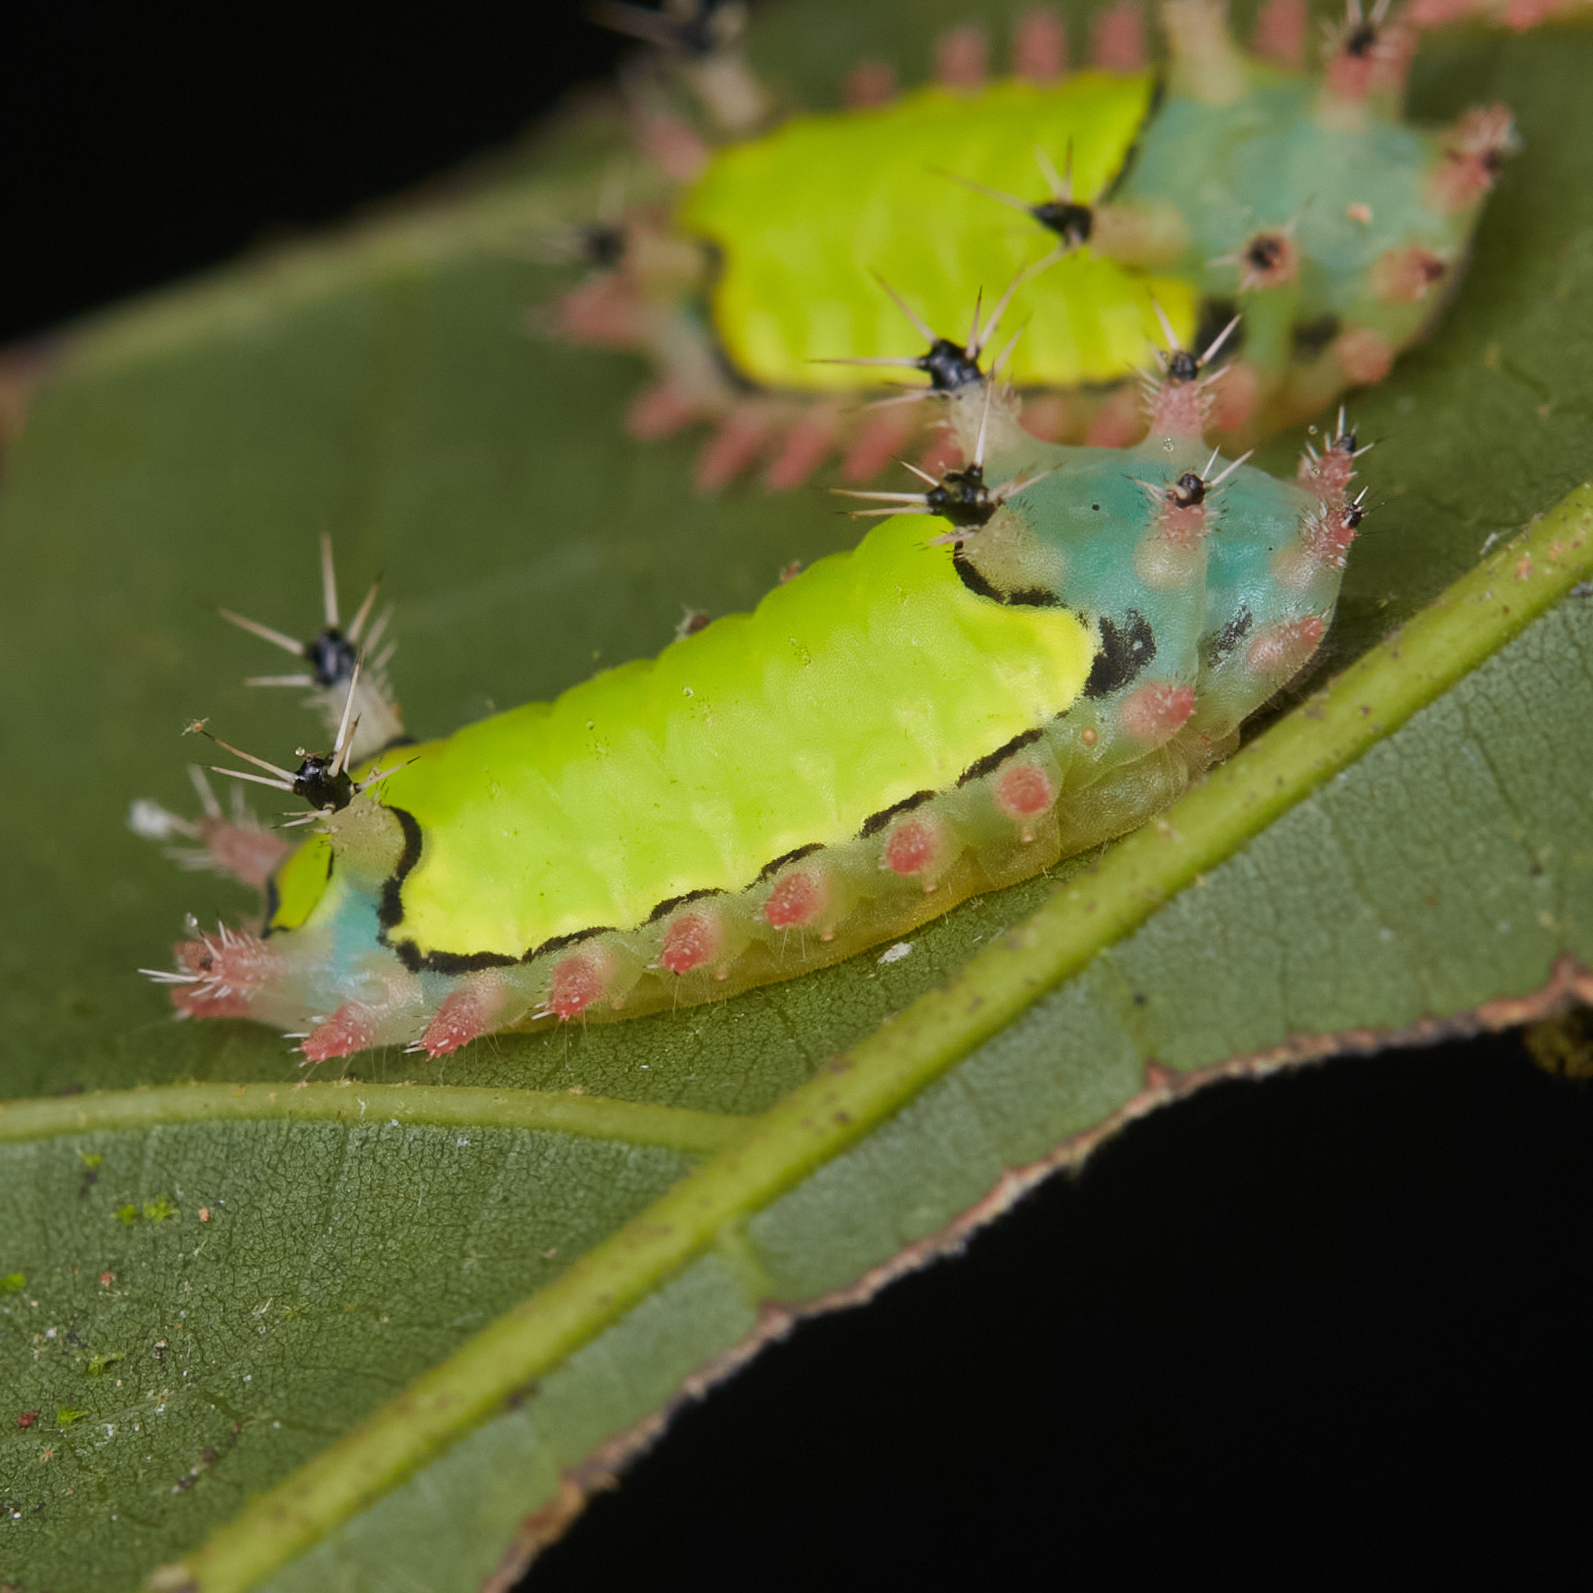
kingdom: Animalia
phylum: Arthropoda
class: Insecta
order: Lepidoptera
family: Limacodidae
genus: Sibine
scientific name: Sibine horrida
